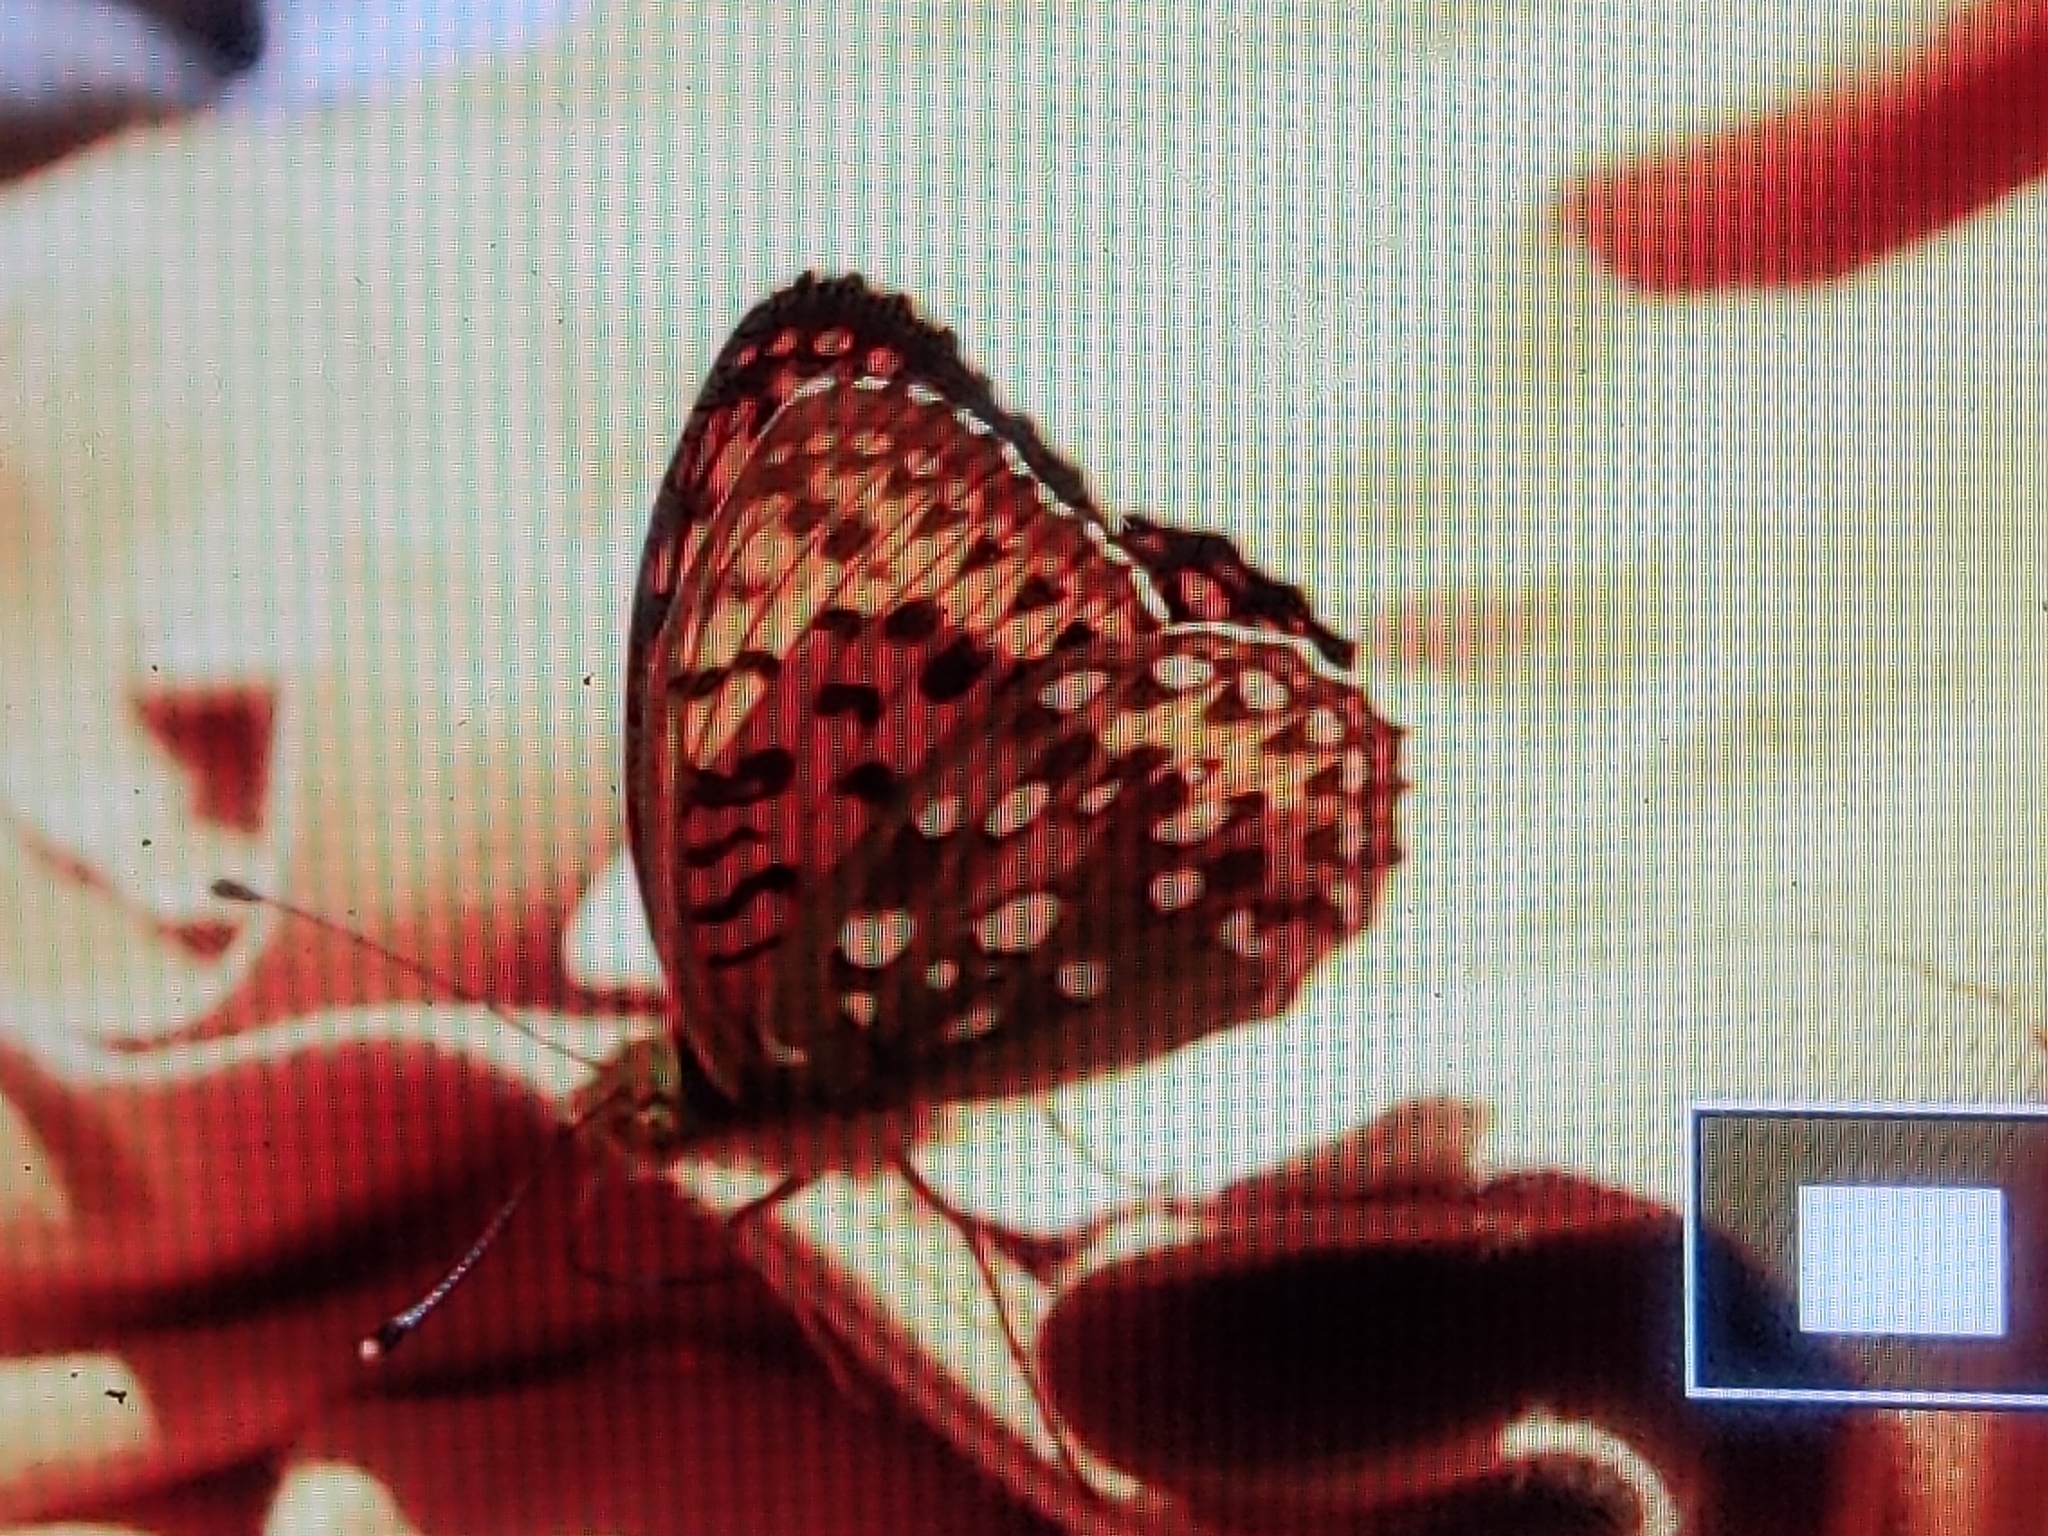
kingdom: Animalia
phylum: Arthropoda
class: Insecta
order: Lepidoptera
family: Nymphalidae
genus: Speyeria
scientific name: Speyeria aglaja
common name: Dark green fritillary
